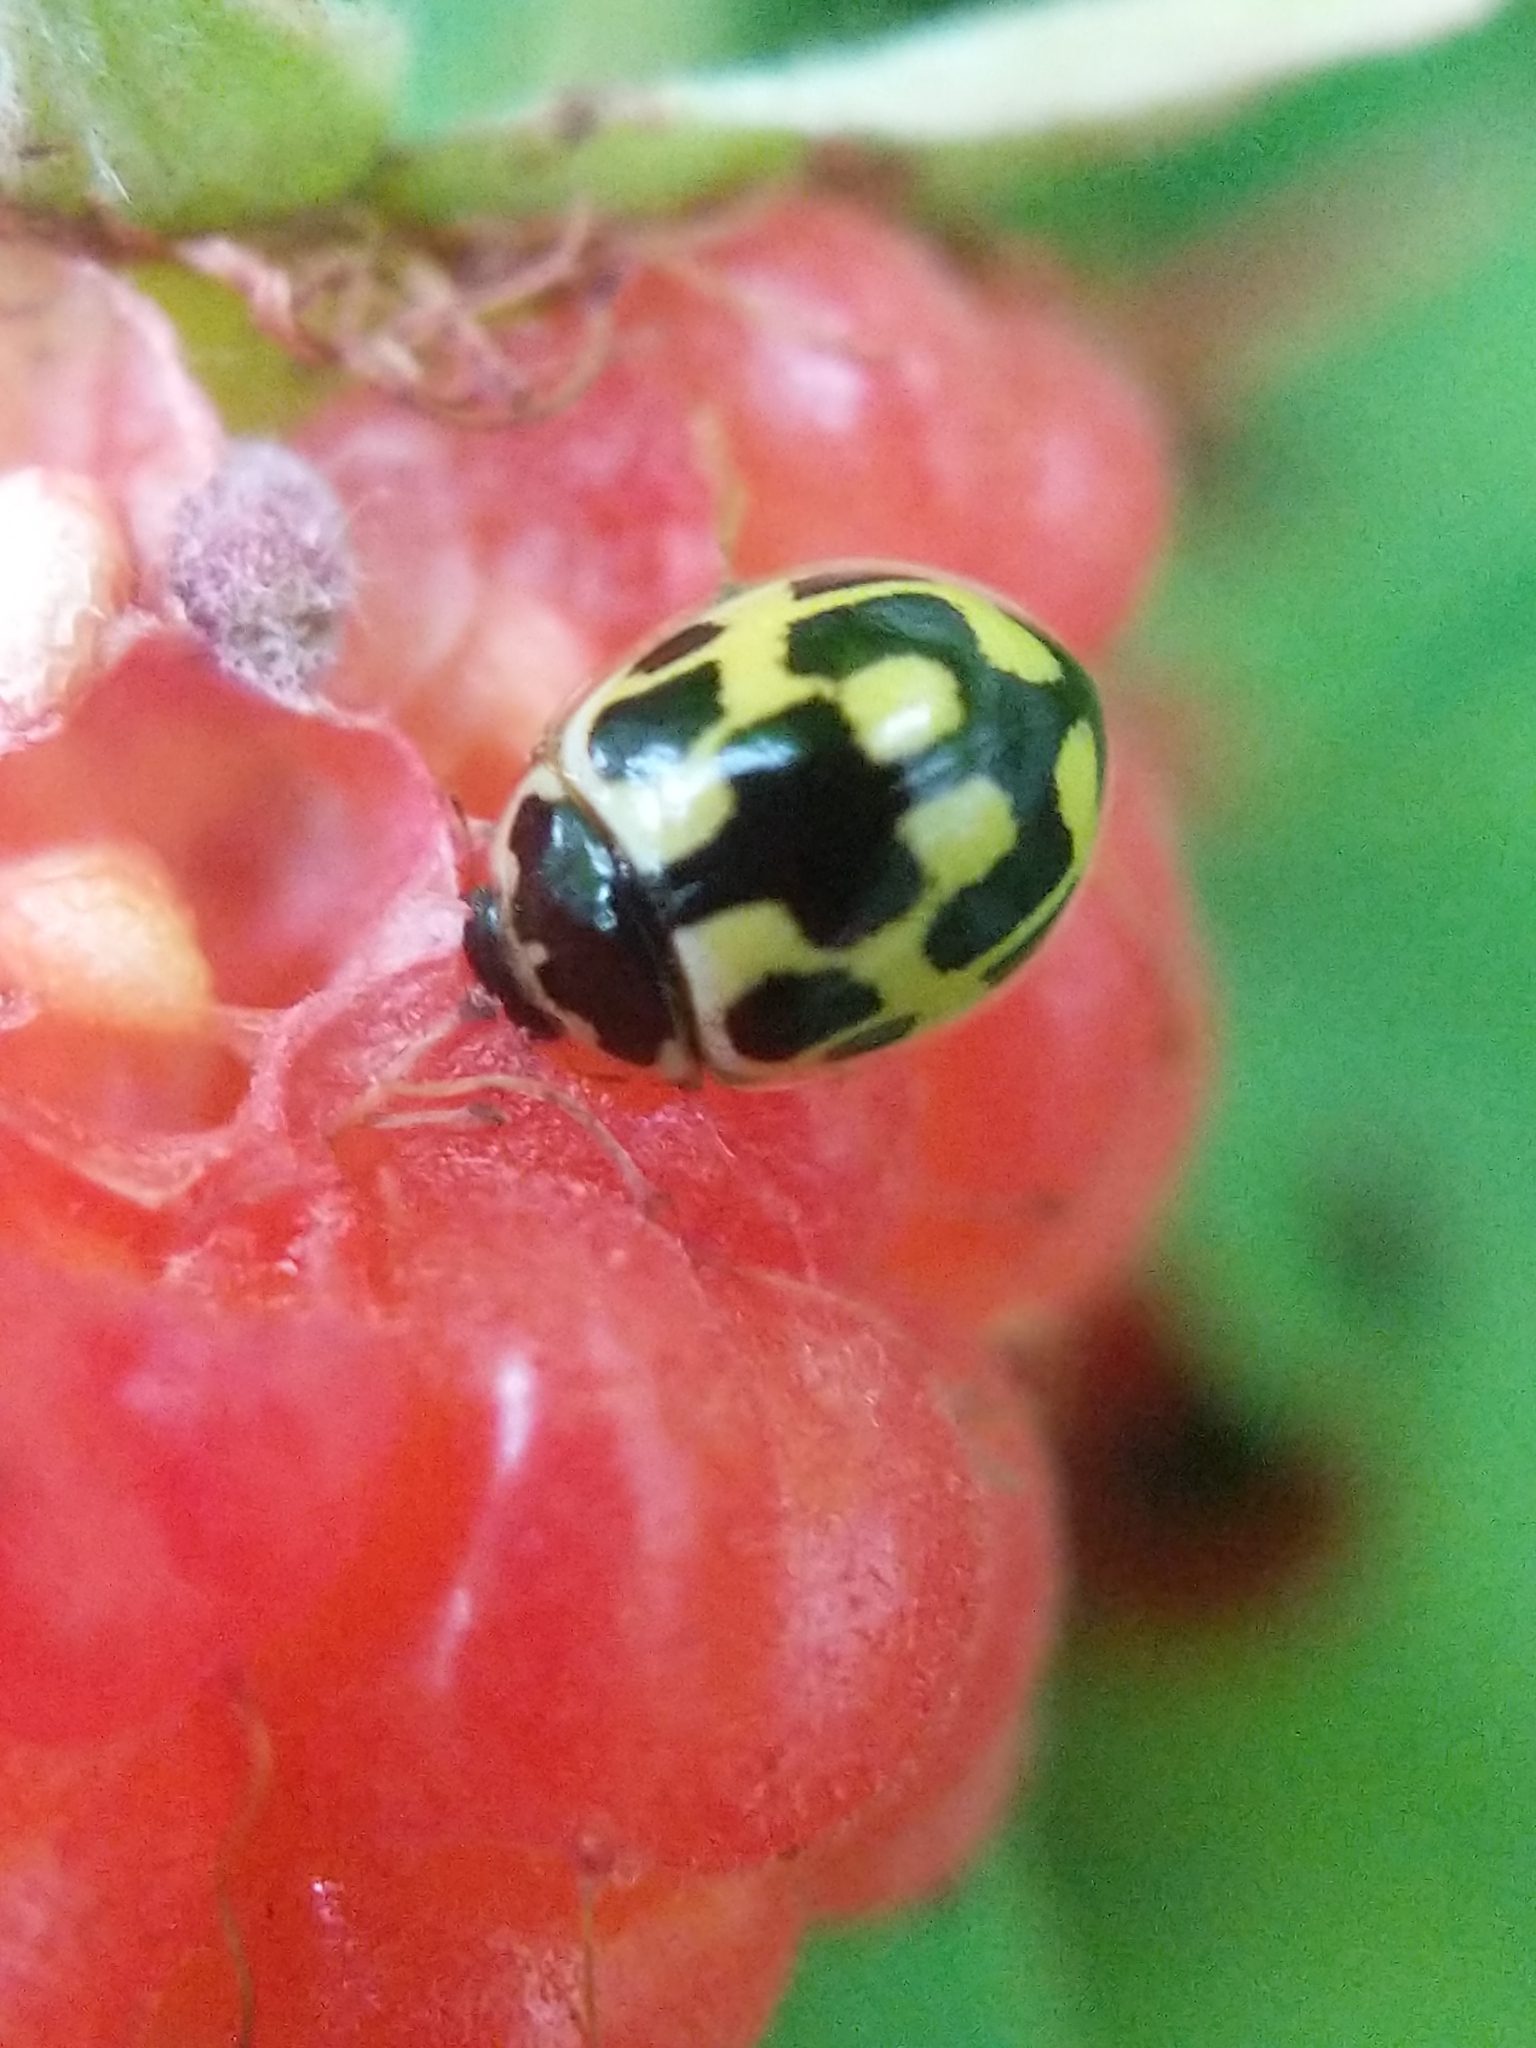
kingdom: Animalia
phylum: Arthropoda
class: Insecta
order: Coleoptera
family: Coccinellidae
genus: Propylaea
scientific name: Propylaea quatuordecimpunctata
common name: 14-spotted ladybird beetle
